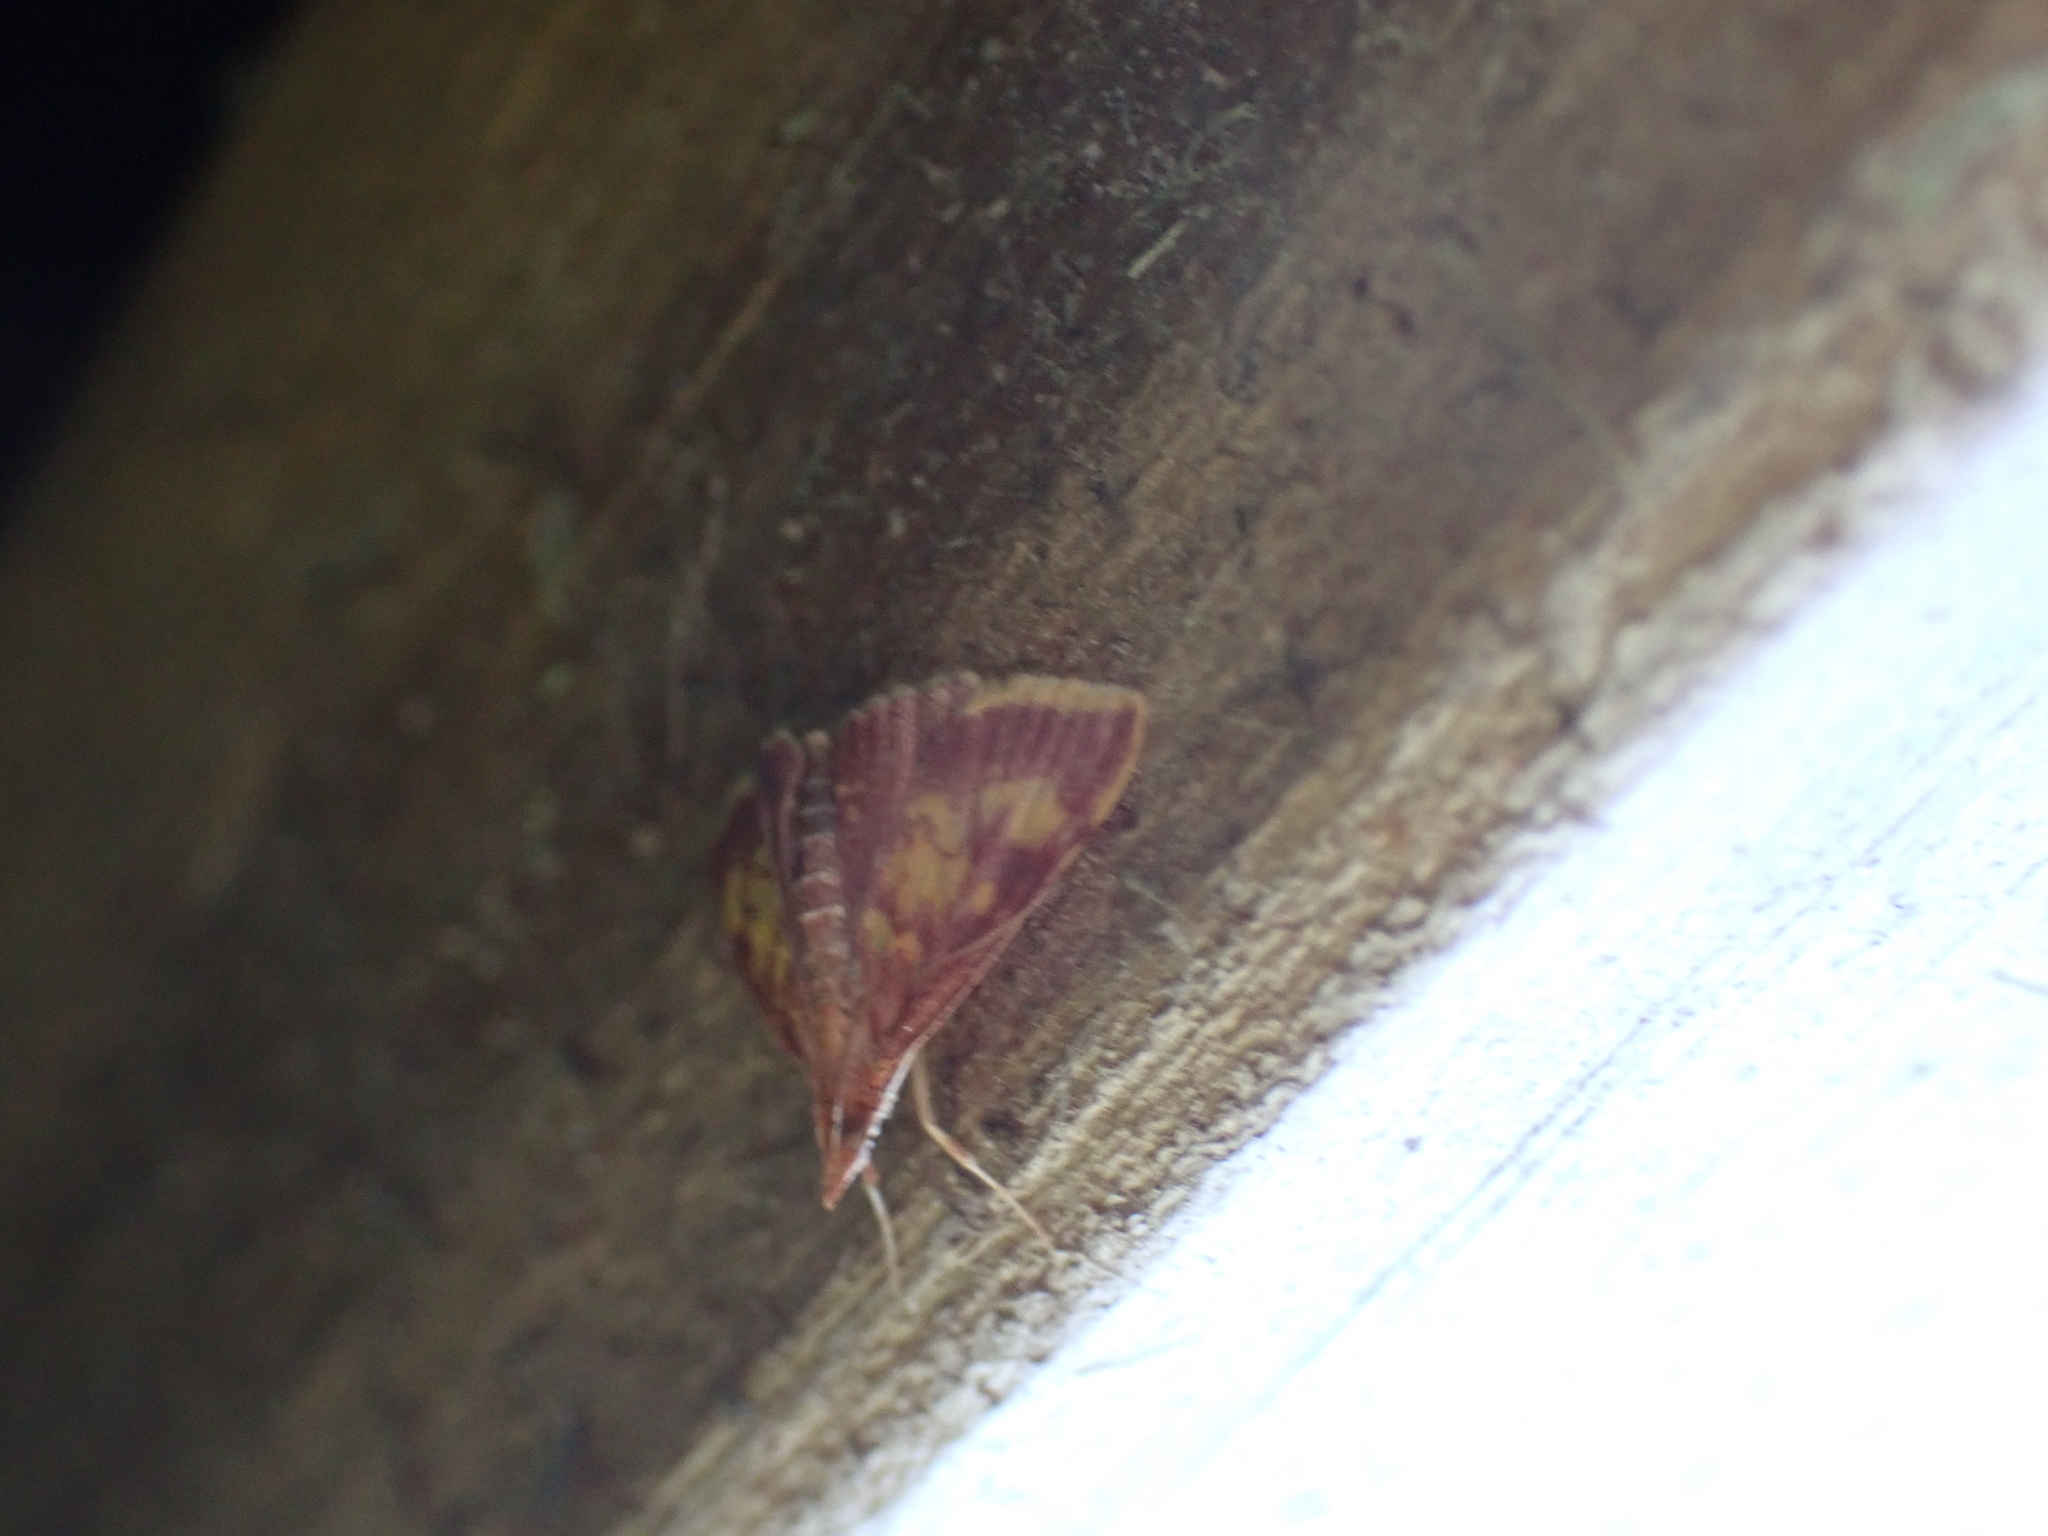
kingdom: Animalia
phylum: Arthropoda
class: Insecta
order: Lepidoptera
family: Crambidae
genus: Pyrausta
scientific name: Pyrausta acrionalis
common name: Mint-loving pyrausta moth
